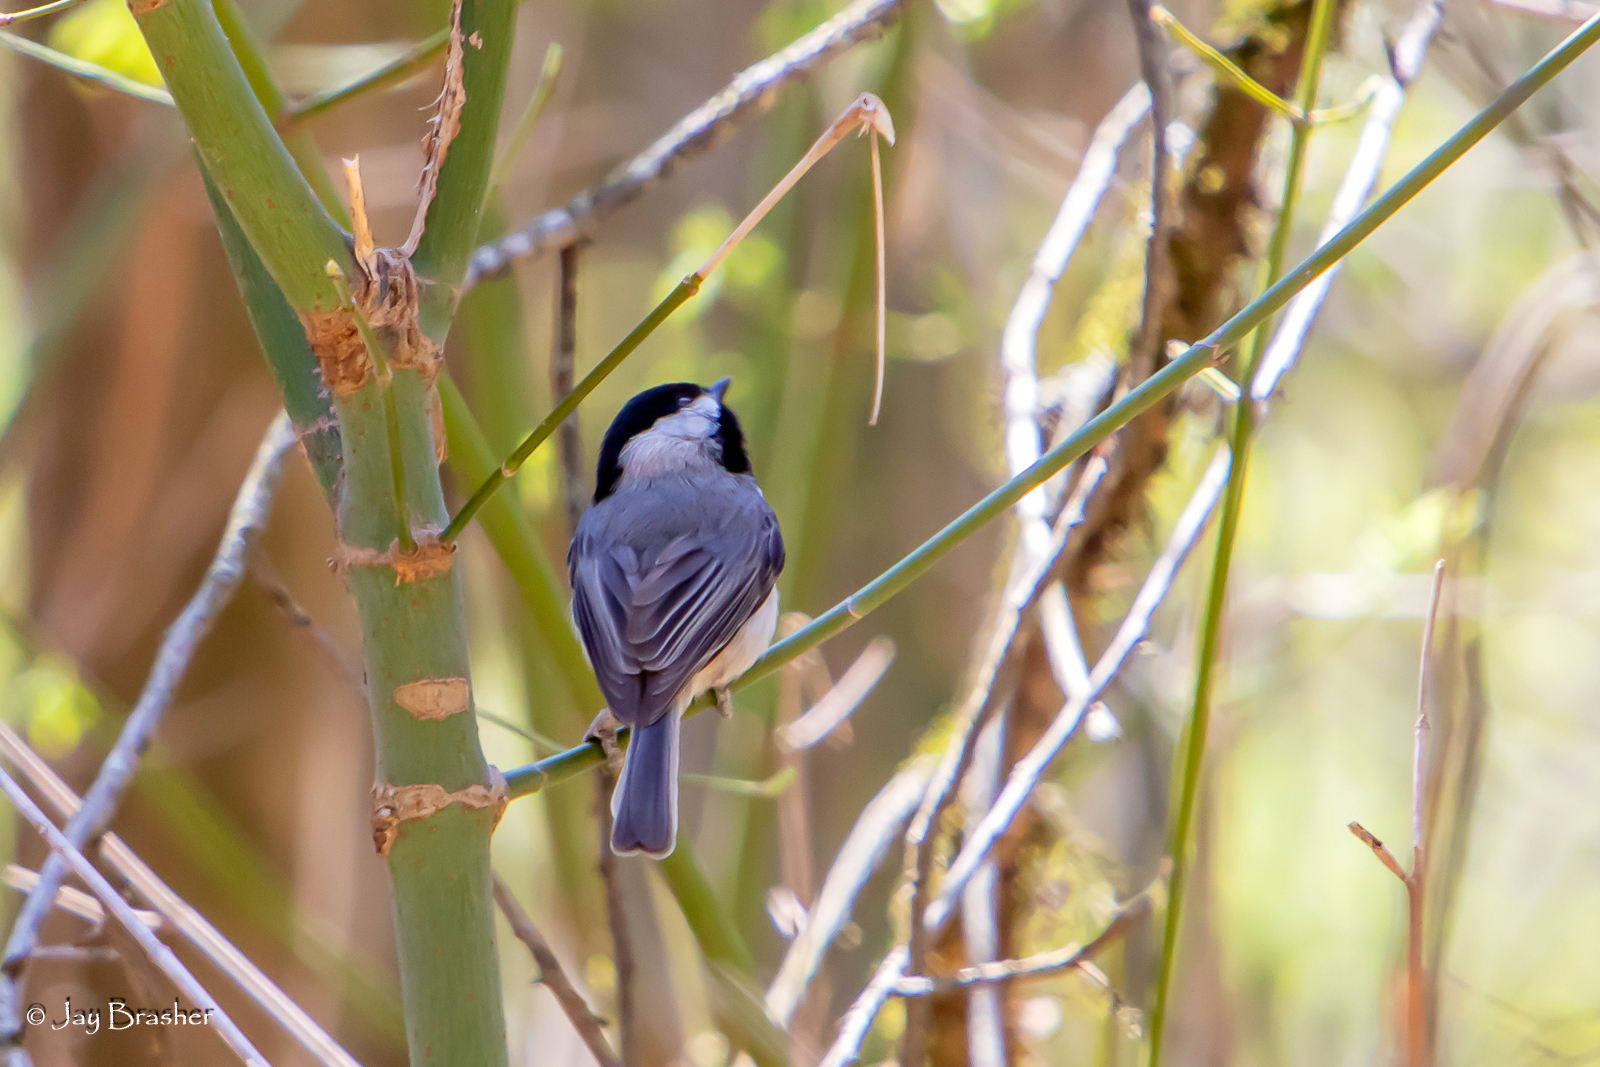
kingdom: Animalia
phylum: Chordata
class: Aves
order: Passeriformes
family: Paridae
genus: Poecile
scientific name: Poecile carolinensis
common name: Carolina chickadee
